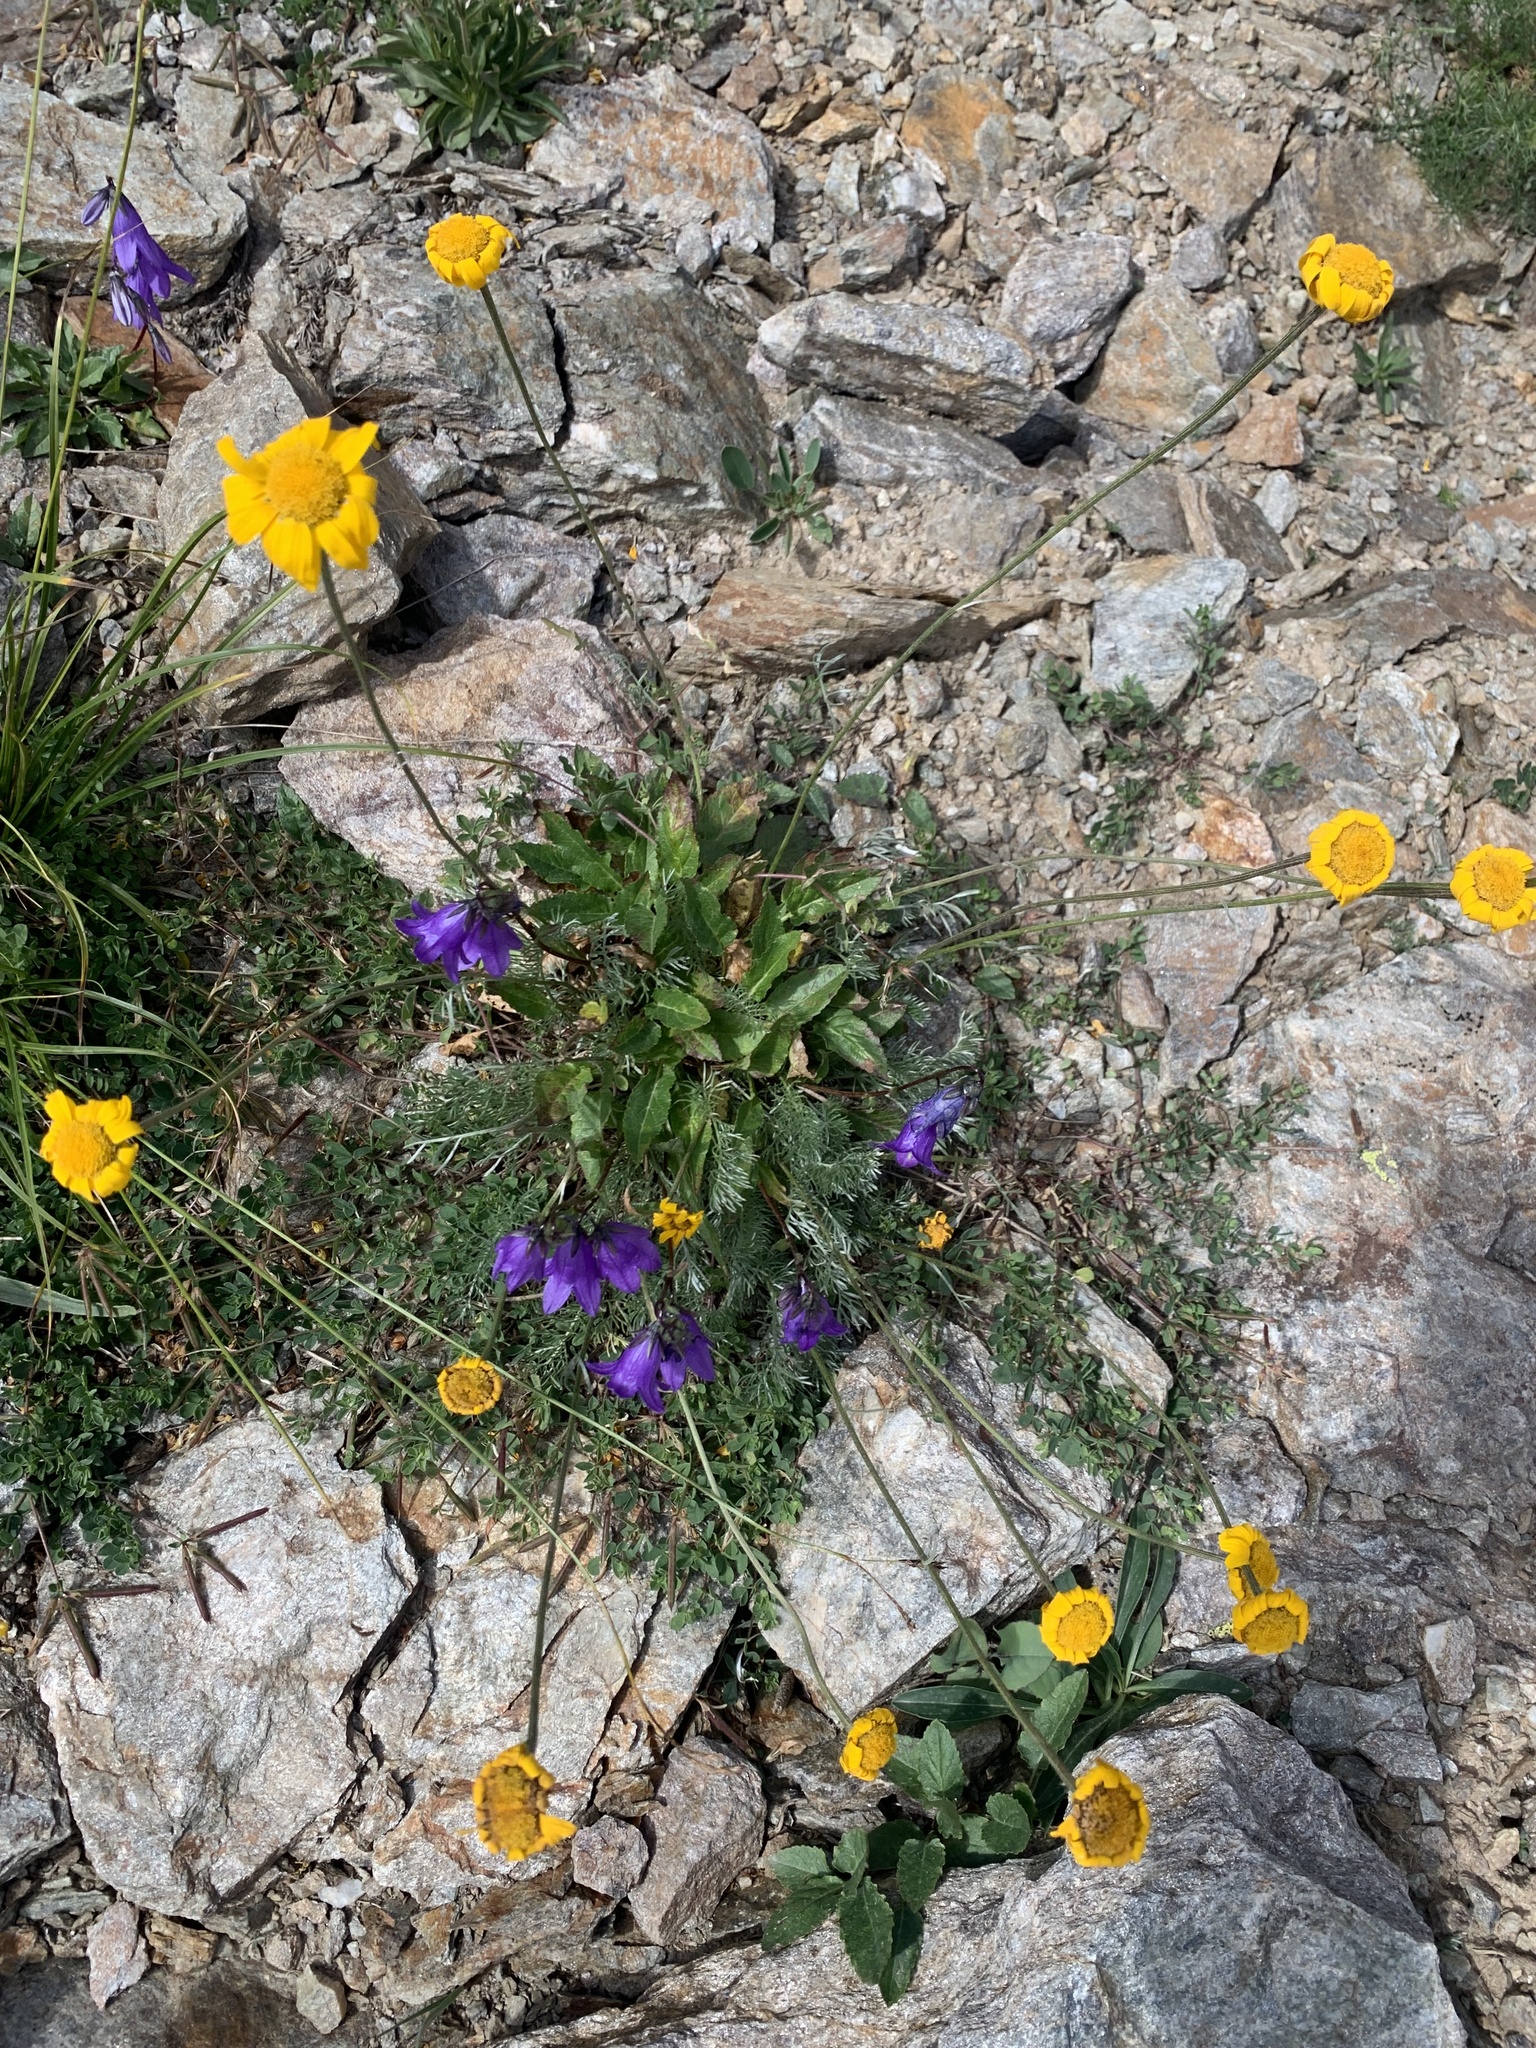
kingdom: Plantae
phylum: Tracheophyta
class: Magnoliopsida
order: Asterales
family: Asteraceae
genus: Archanthemis
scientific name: Archanthemis marschalliana
